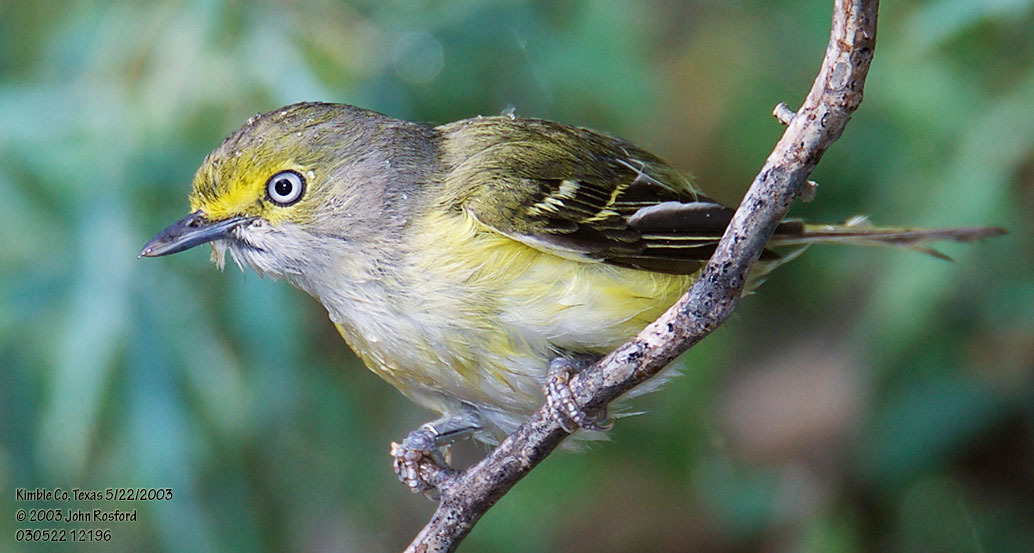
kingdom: Animalia
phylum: Chordata
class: Aves
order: Passeriformes
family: Vireonidae
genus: Vireo
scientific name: Vireo griseus
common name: White-eyed vireo
